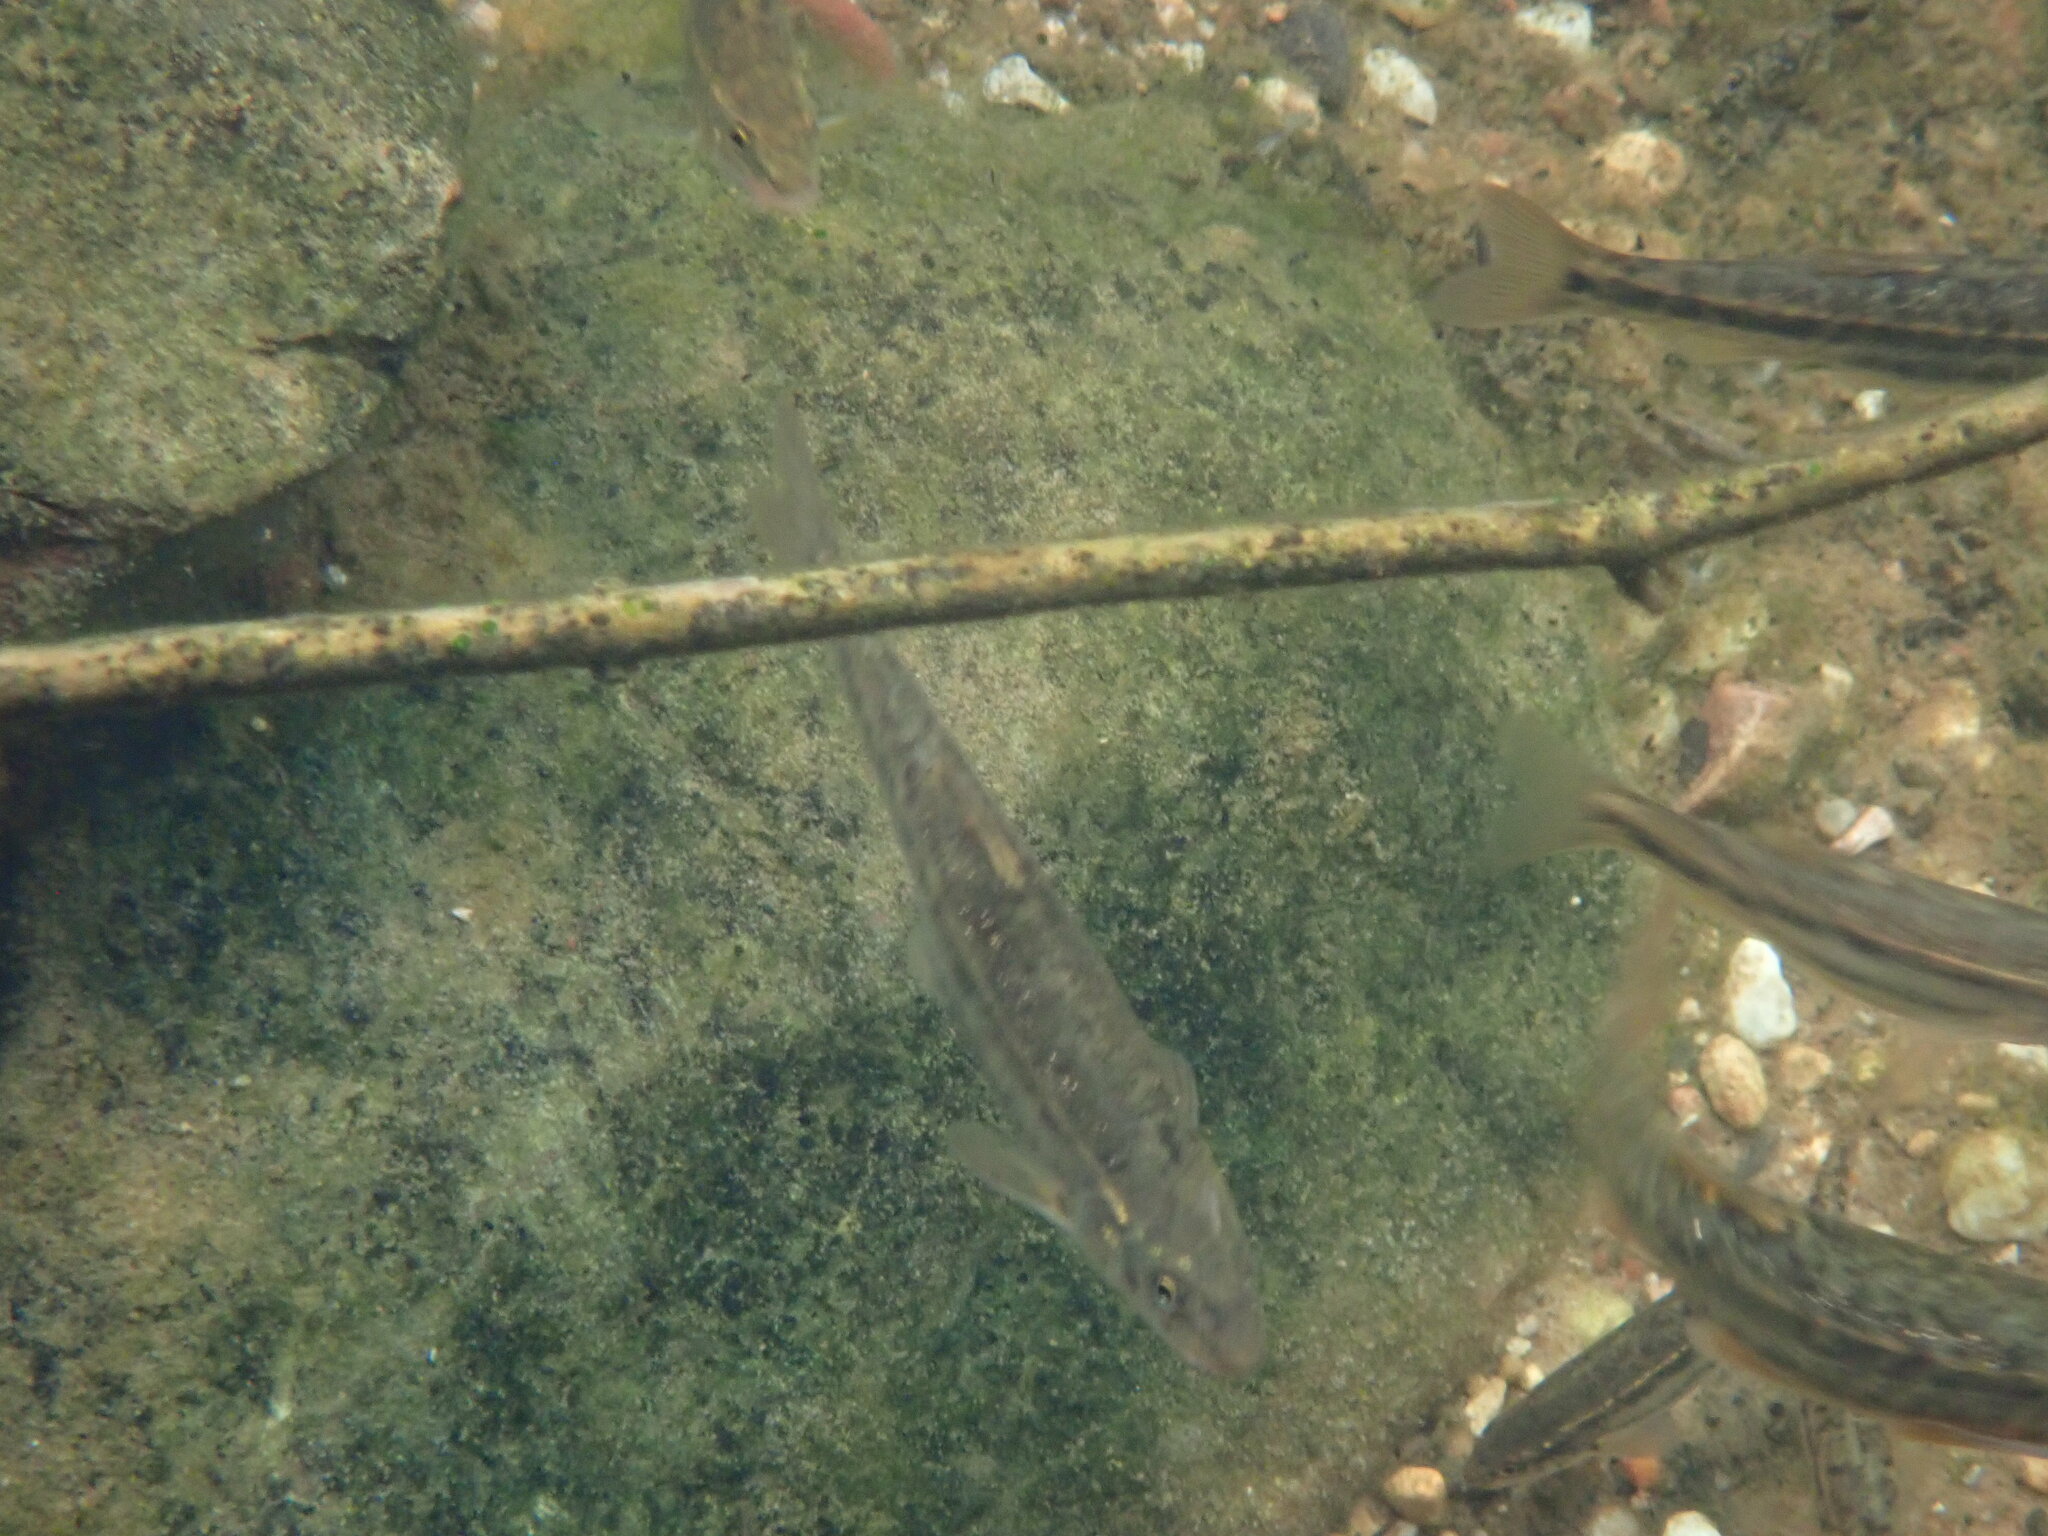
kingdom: Animalia
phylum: Chordata
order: Cypriniformes
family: Cyprinidae
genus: Rhinichthys
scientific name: Rhinichthys osculus
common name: Speckled dace
